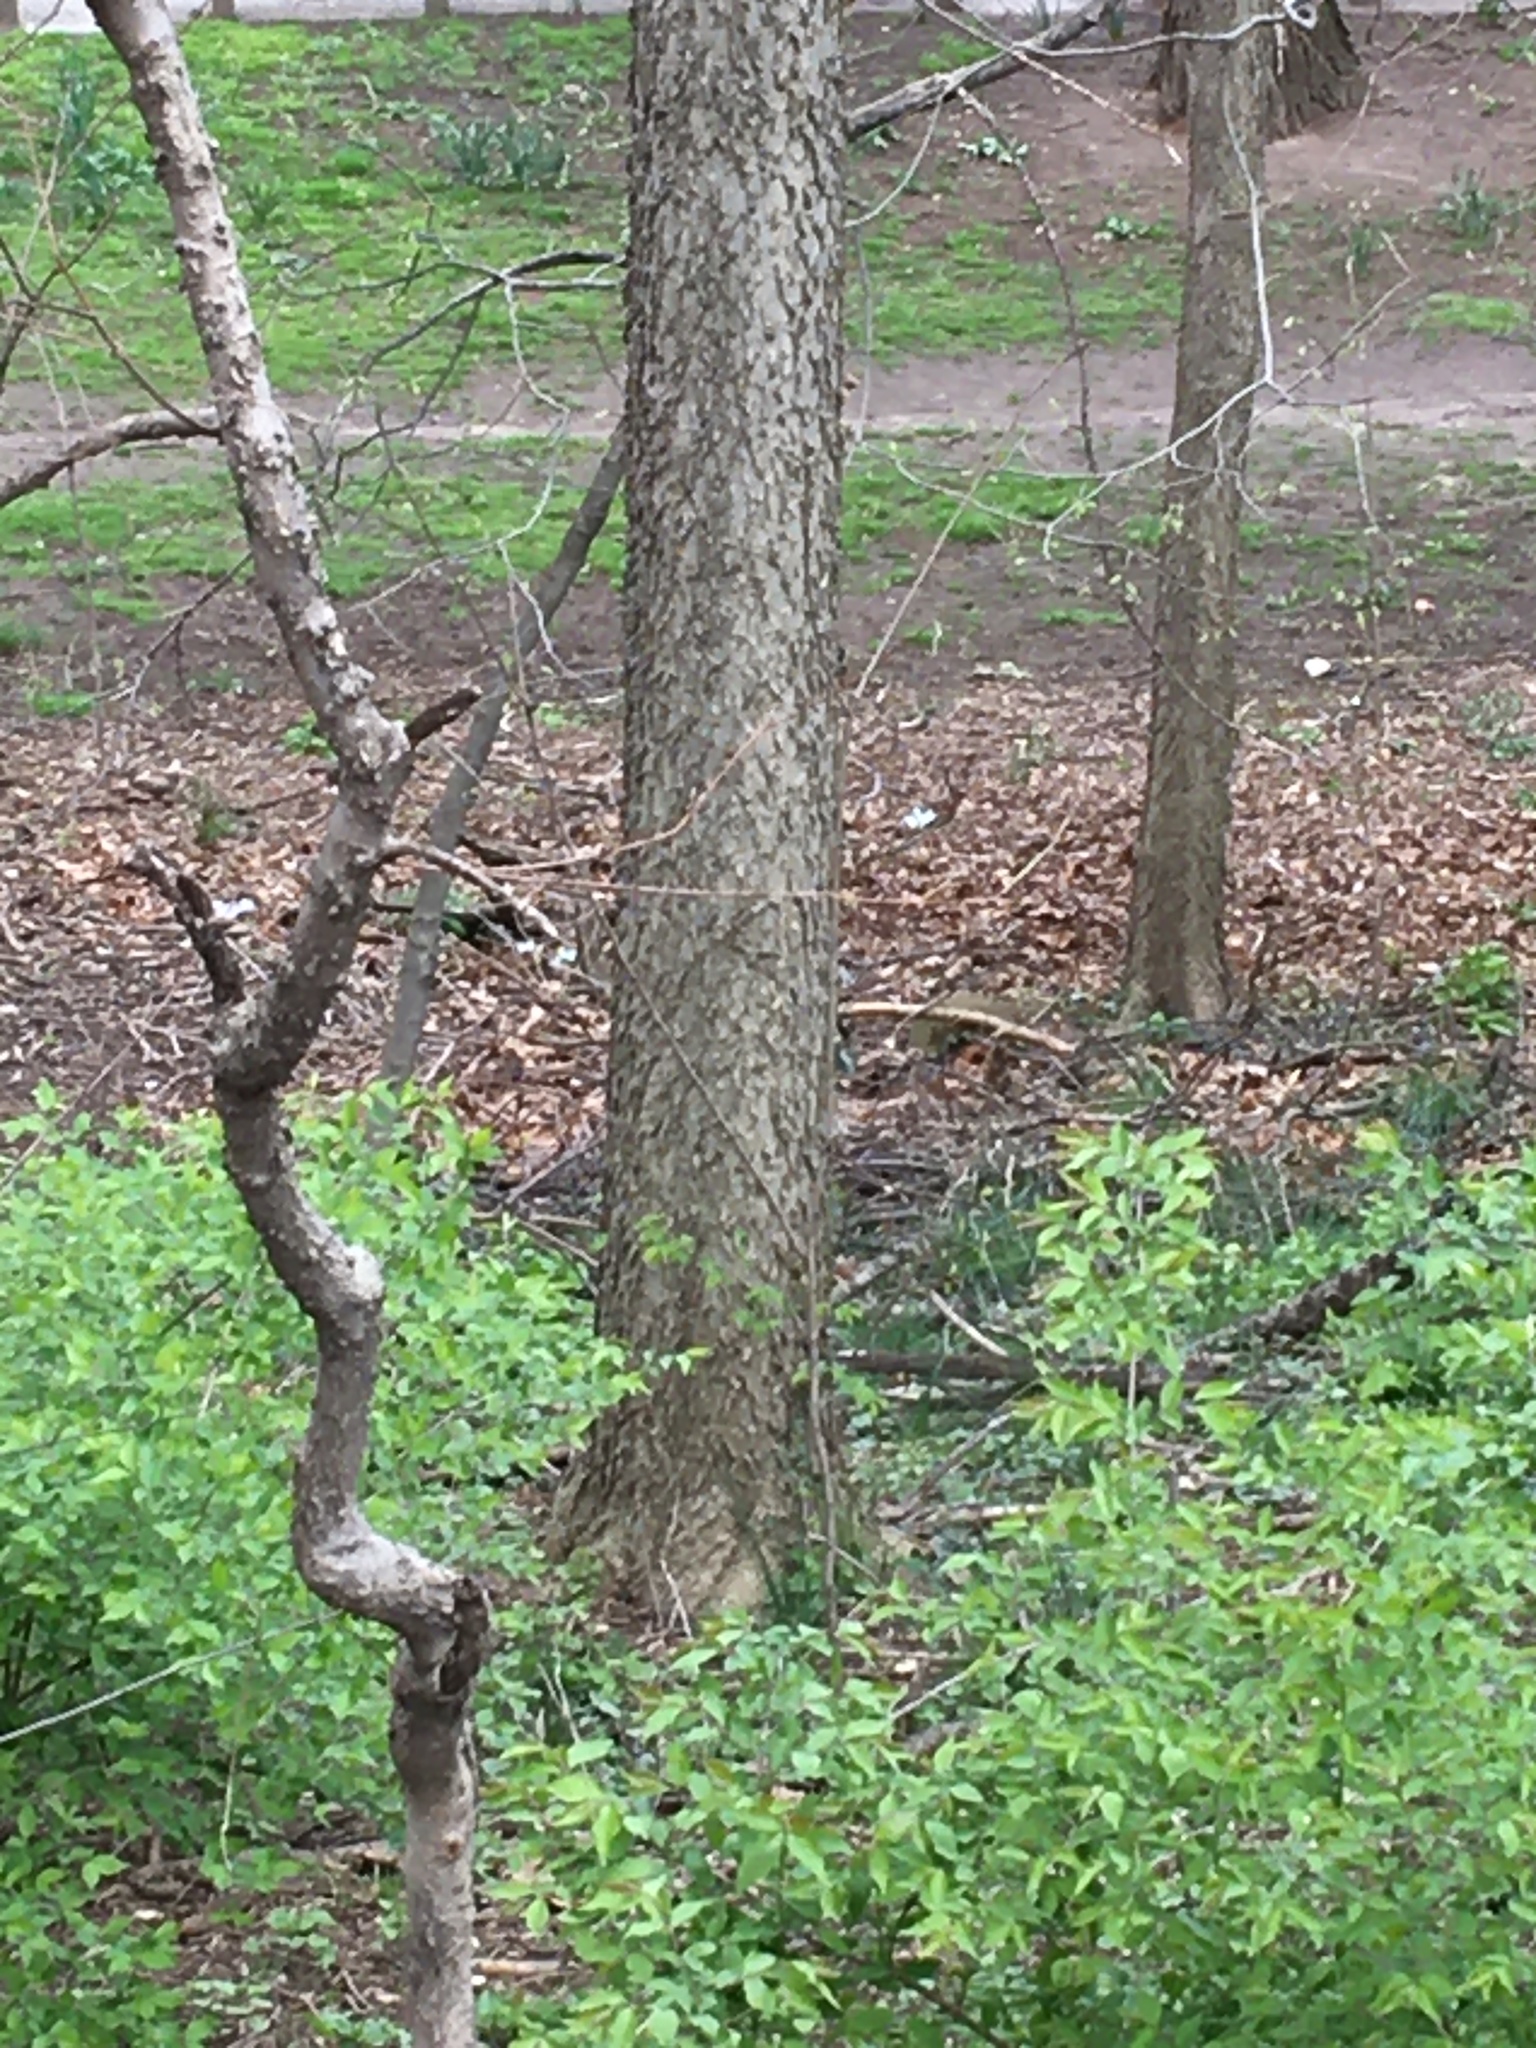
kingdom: Plantae
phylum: Tracheophyta
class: Magnoliopsida
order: Rosales
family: Cannabaceae
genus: Celtis
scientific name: Celtis occidentalis
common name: Common hackberry
